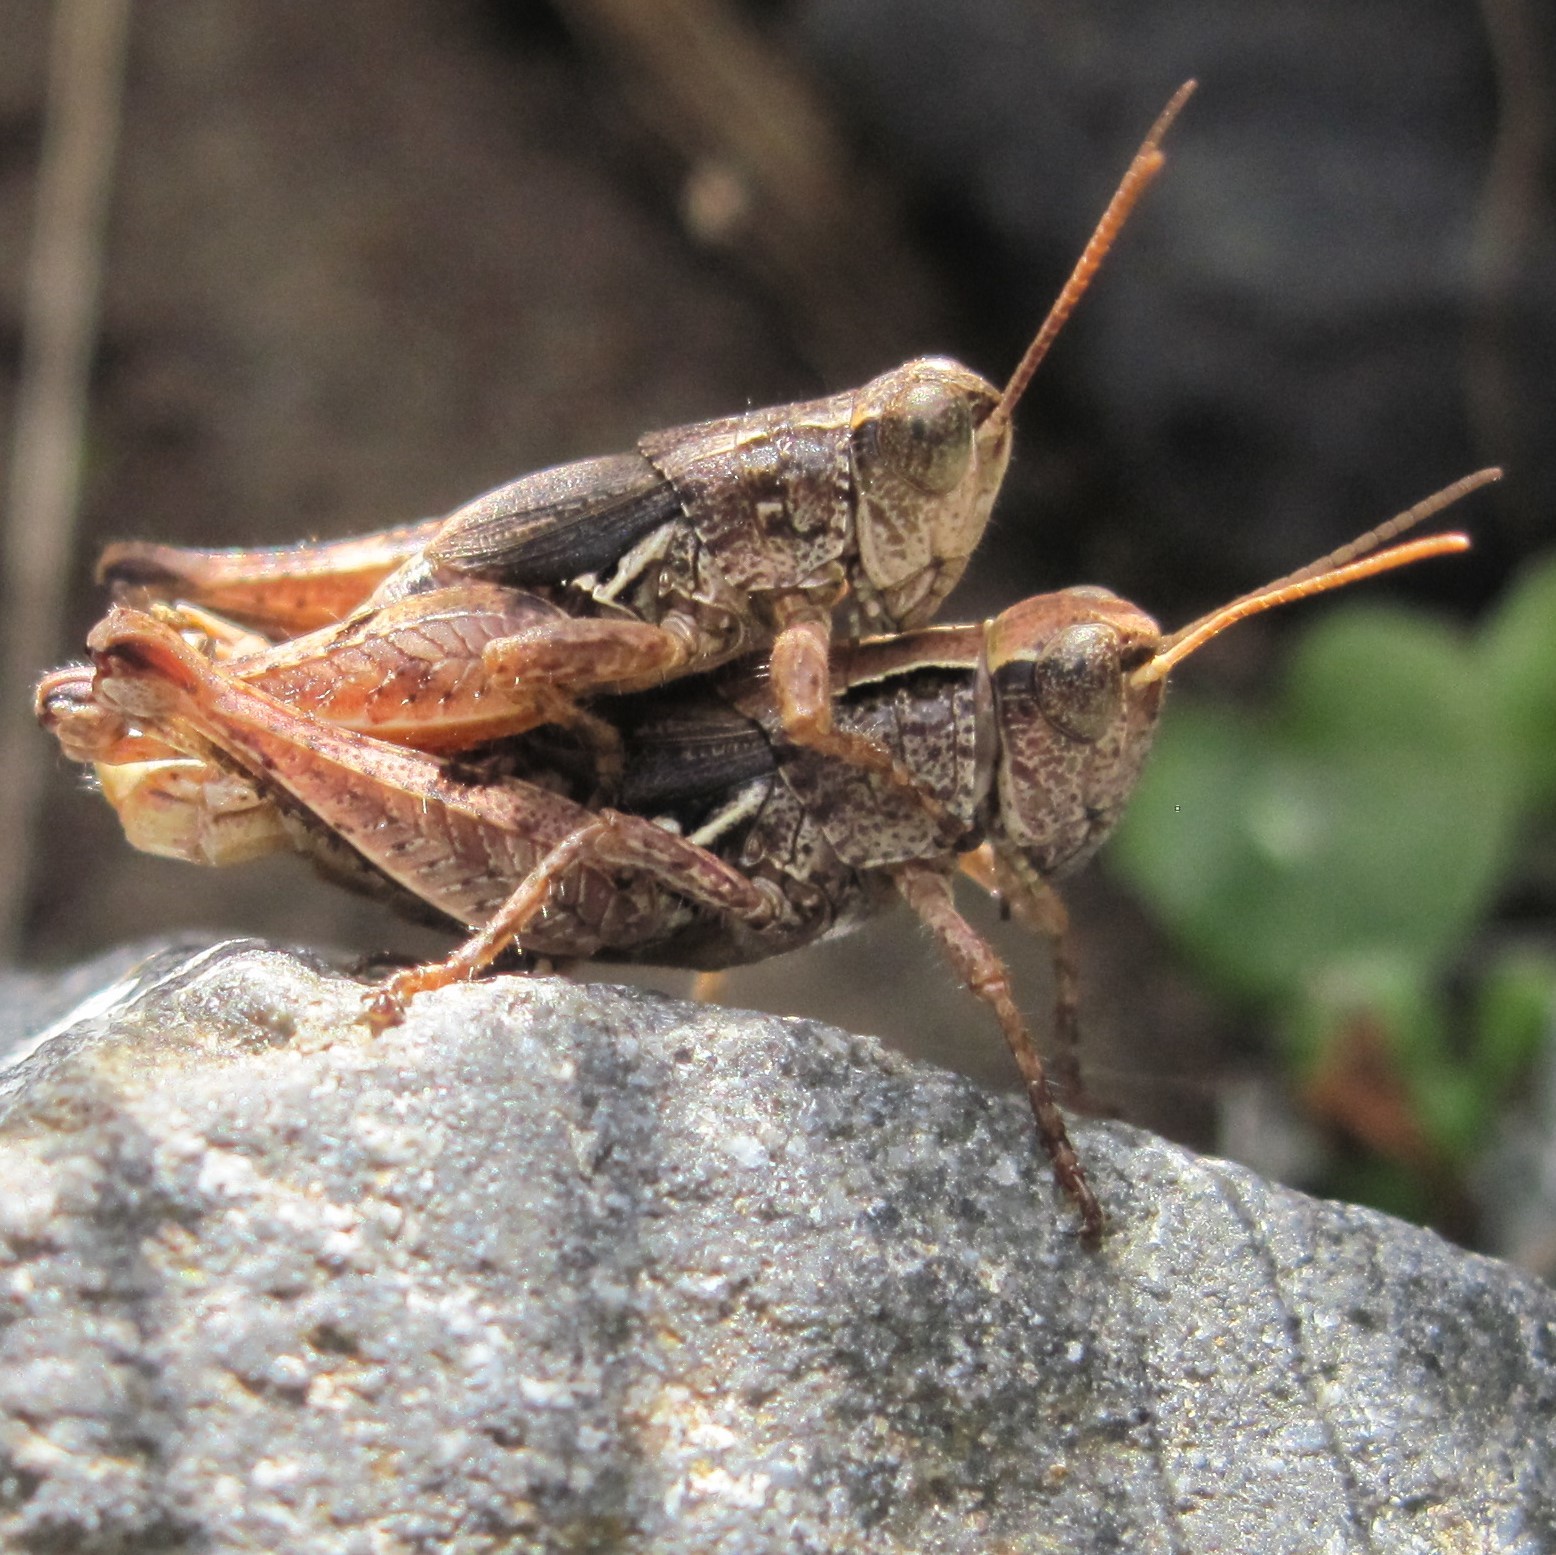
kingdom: Animalia
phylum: Arthropoda
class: Insecta
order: Orthoptera
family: Acrididae
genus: Phaulacridium
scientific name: Phaulacridium marginale
